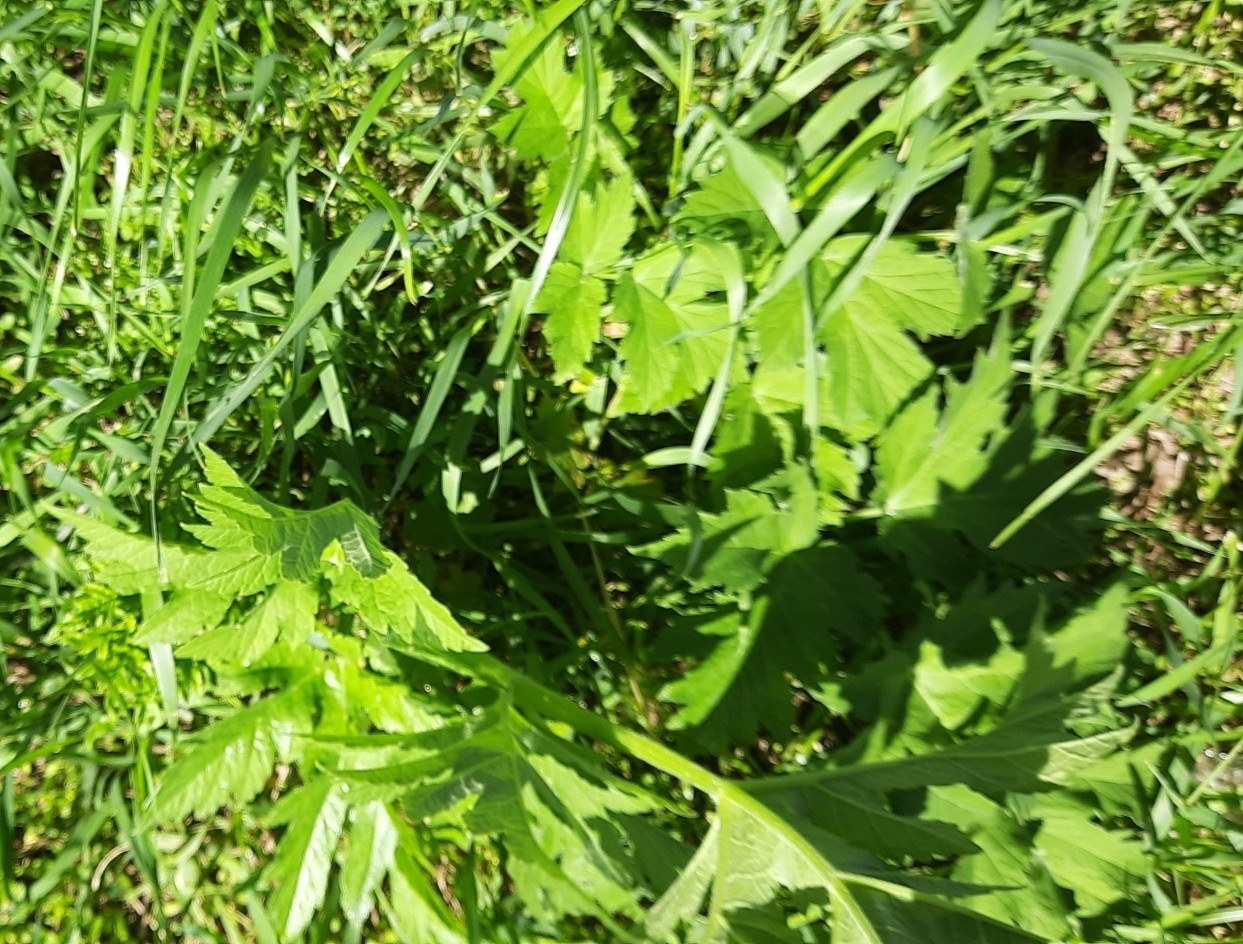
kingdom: Plantae
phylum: Tracheophyta
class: Magnoliopsida
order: Apiales
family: Apiaceae
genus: Heracleum
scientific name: Heracleum sphondylium
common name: Hogweed
